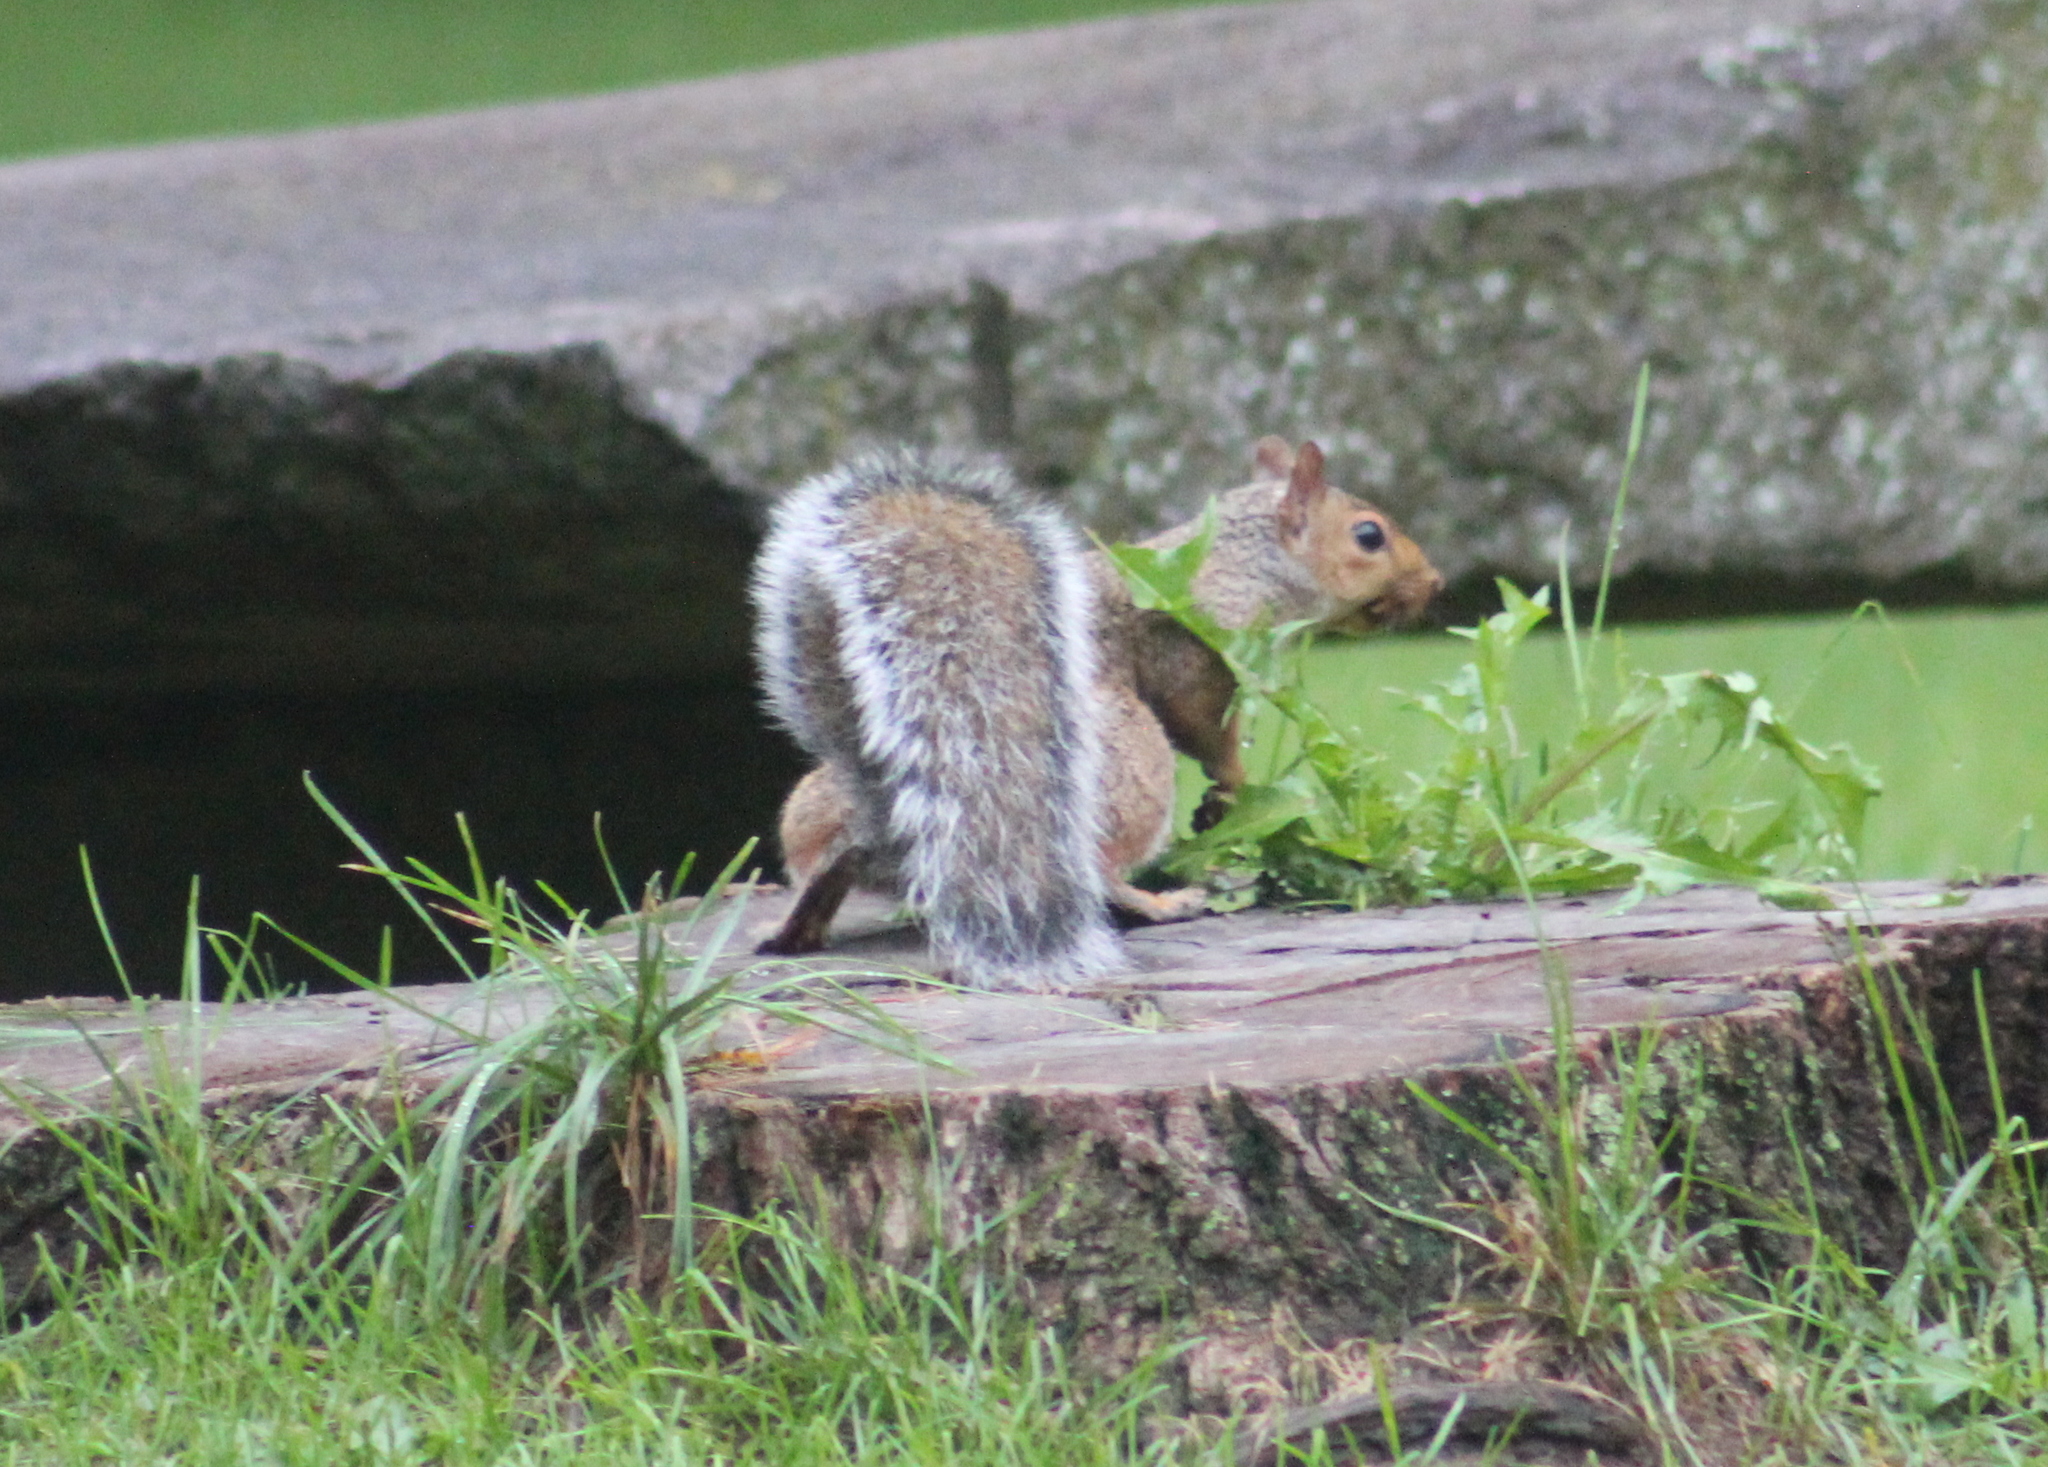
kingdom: Animalia
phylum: Chordata
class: Mammalia
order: Rodentia
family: Sciuridae
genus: Sciurus
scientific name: Sciurus carolinensis
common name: Eastern gray squirrel
